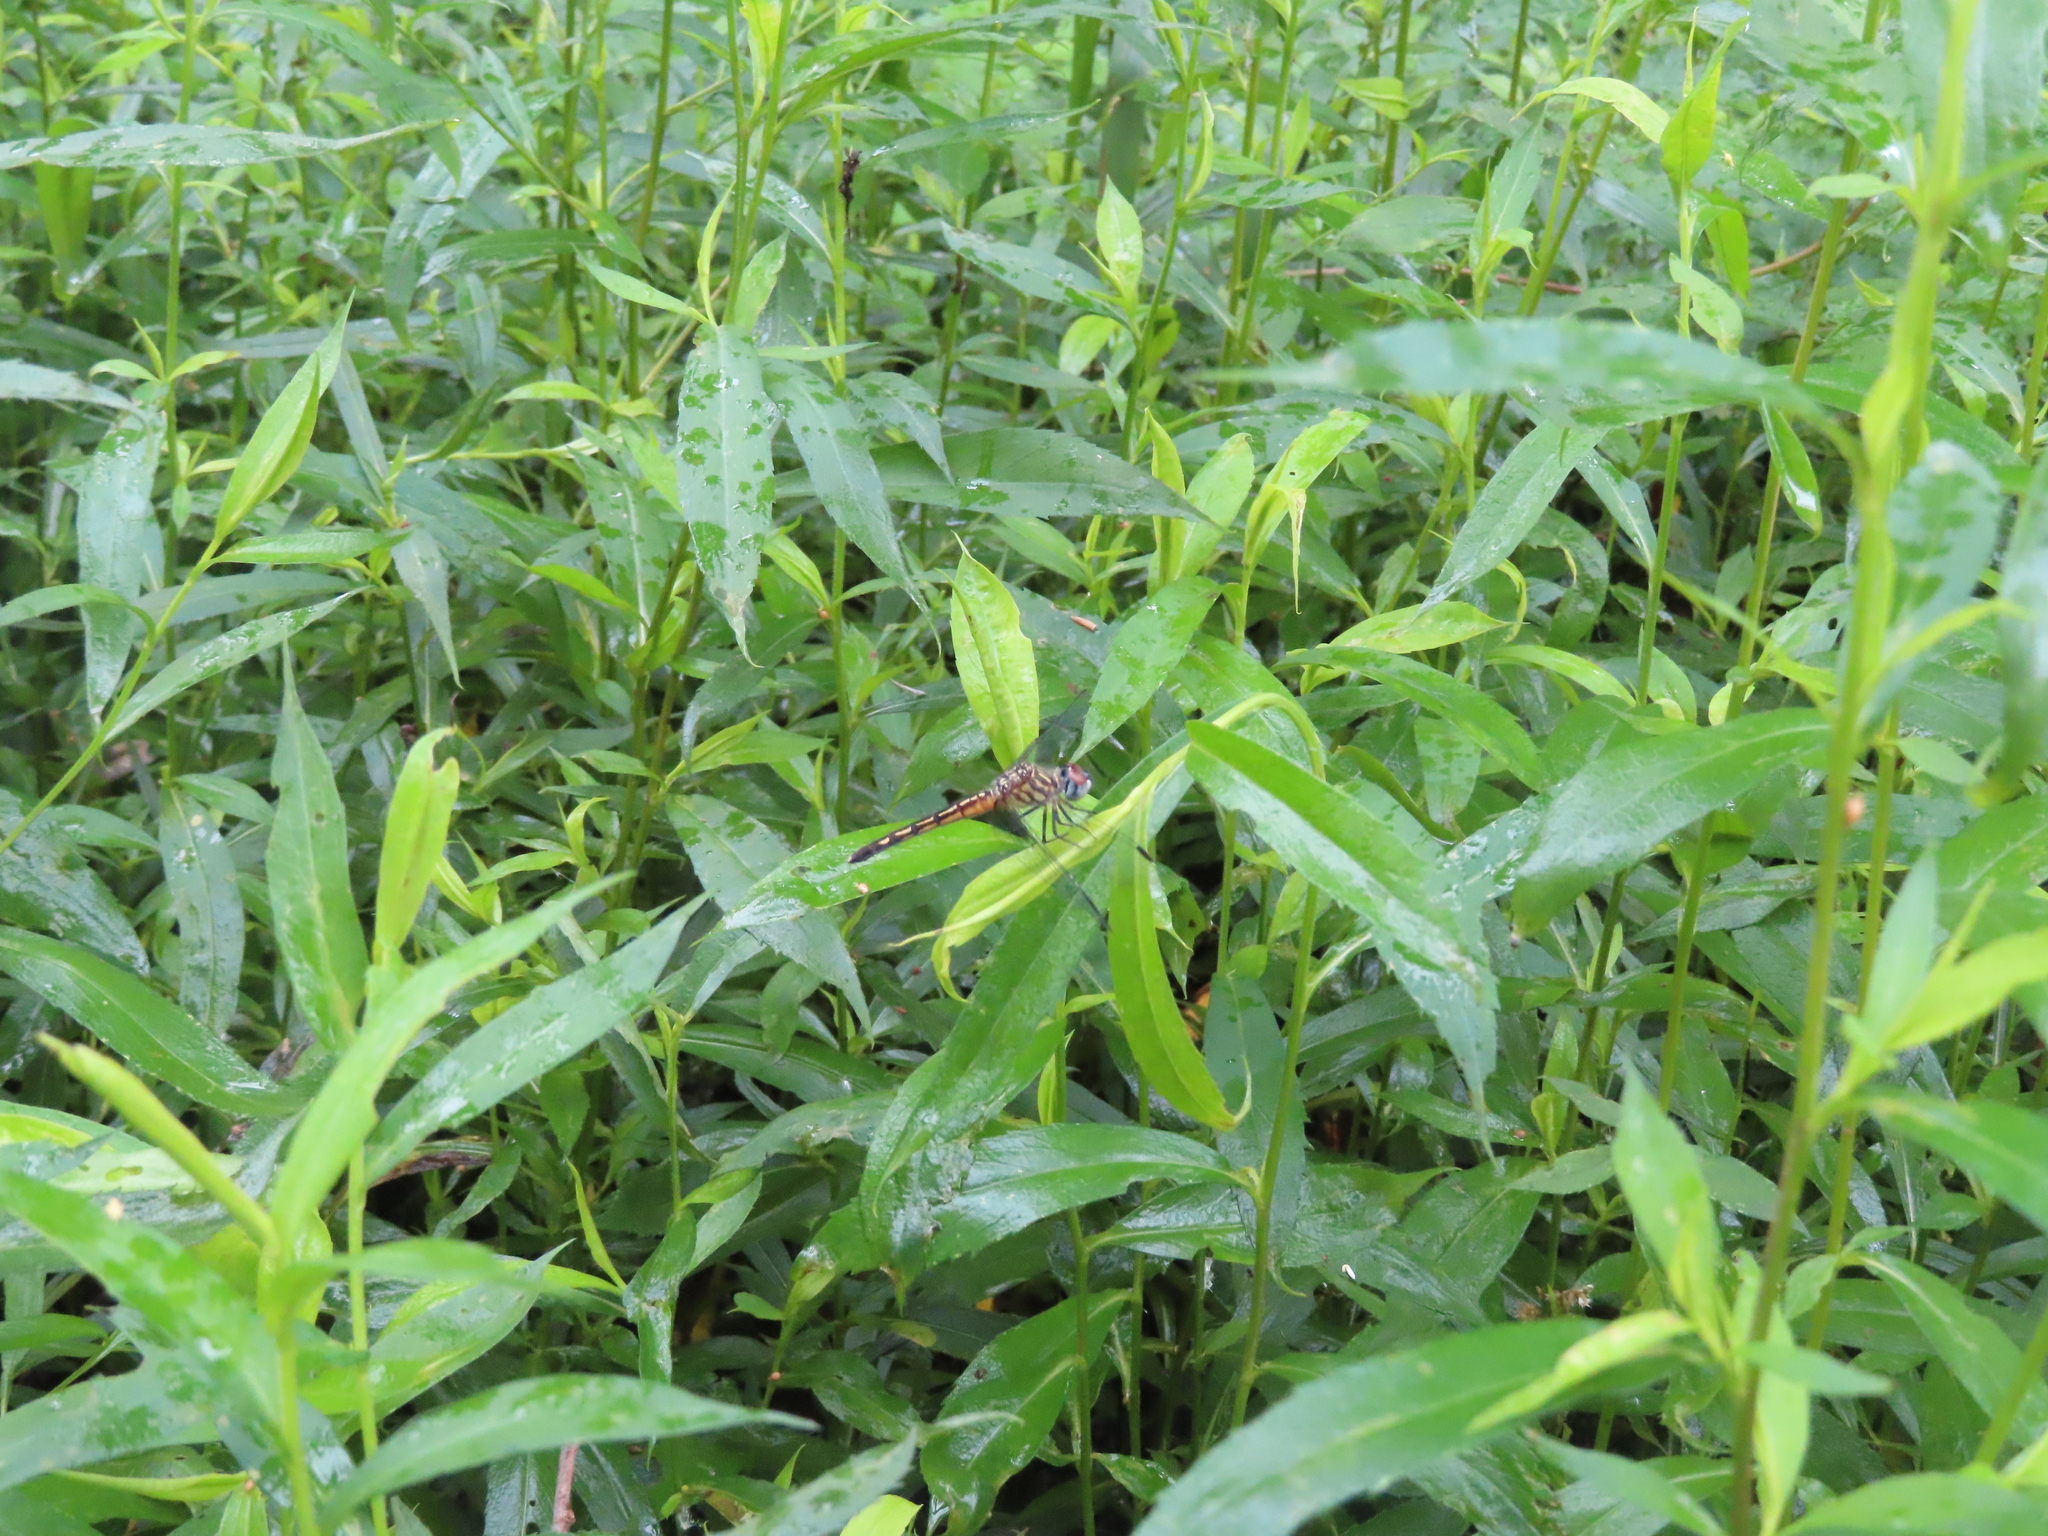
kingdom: Animalia
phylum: Arthropoda
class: Insecta
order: Odonata
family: Libellulidae
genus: Pachydiplax
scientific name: Pachydiplax longipennis
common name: Blue dasher
